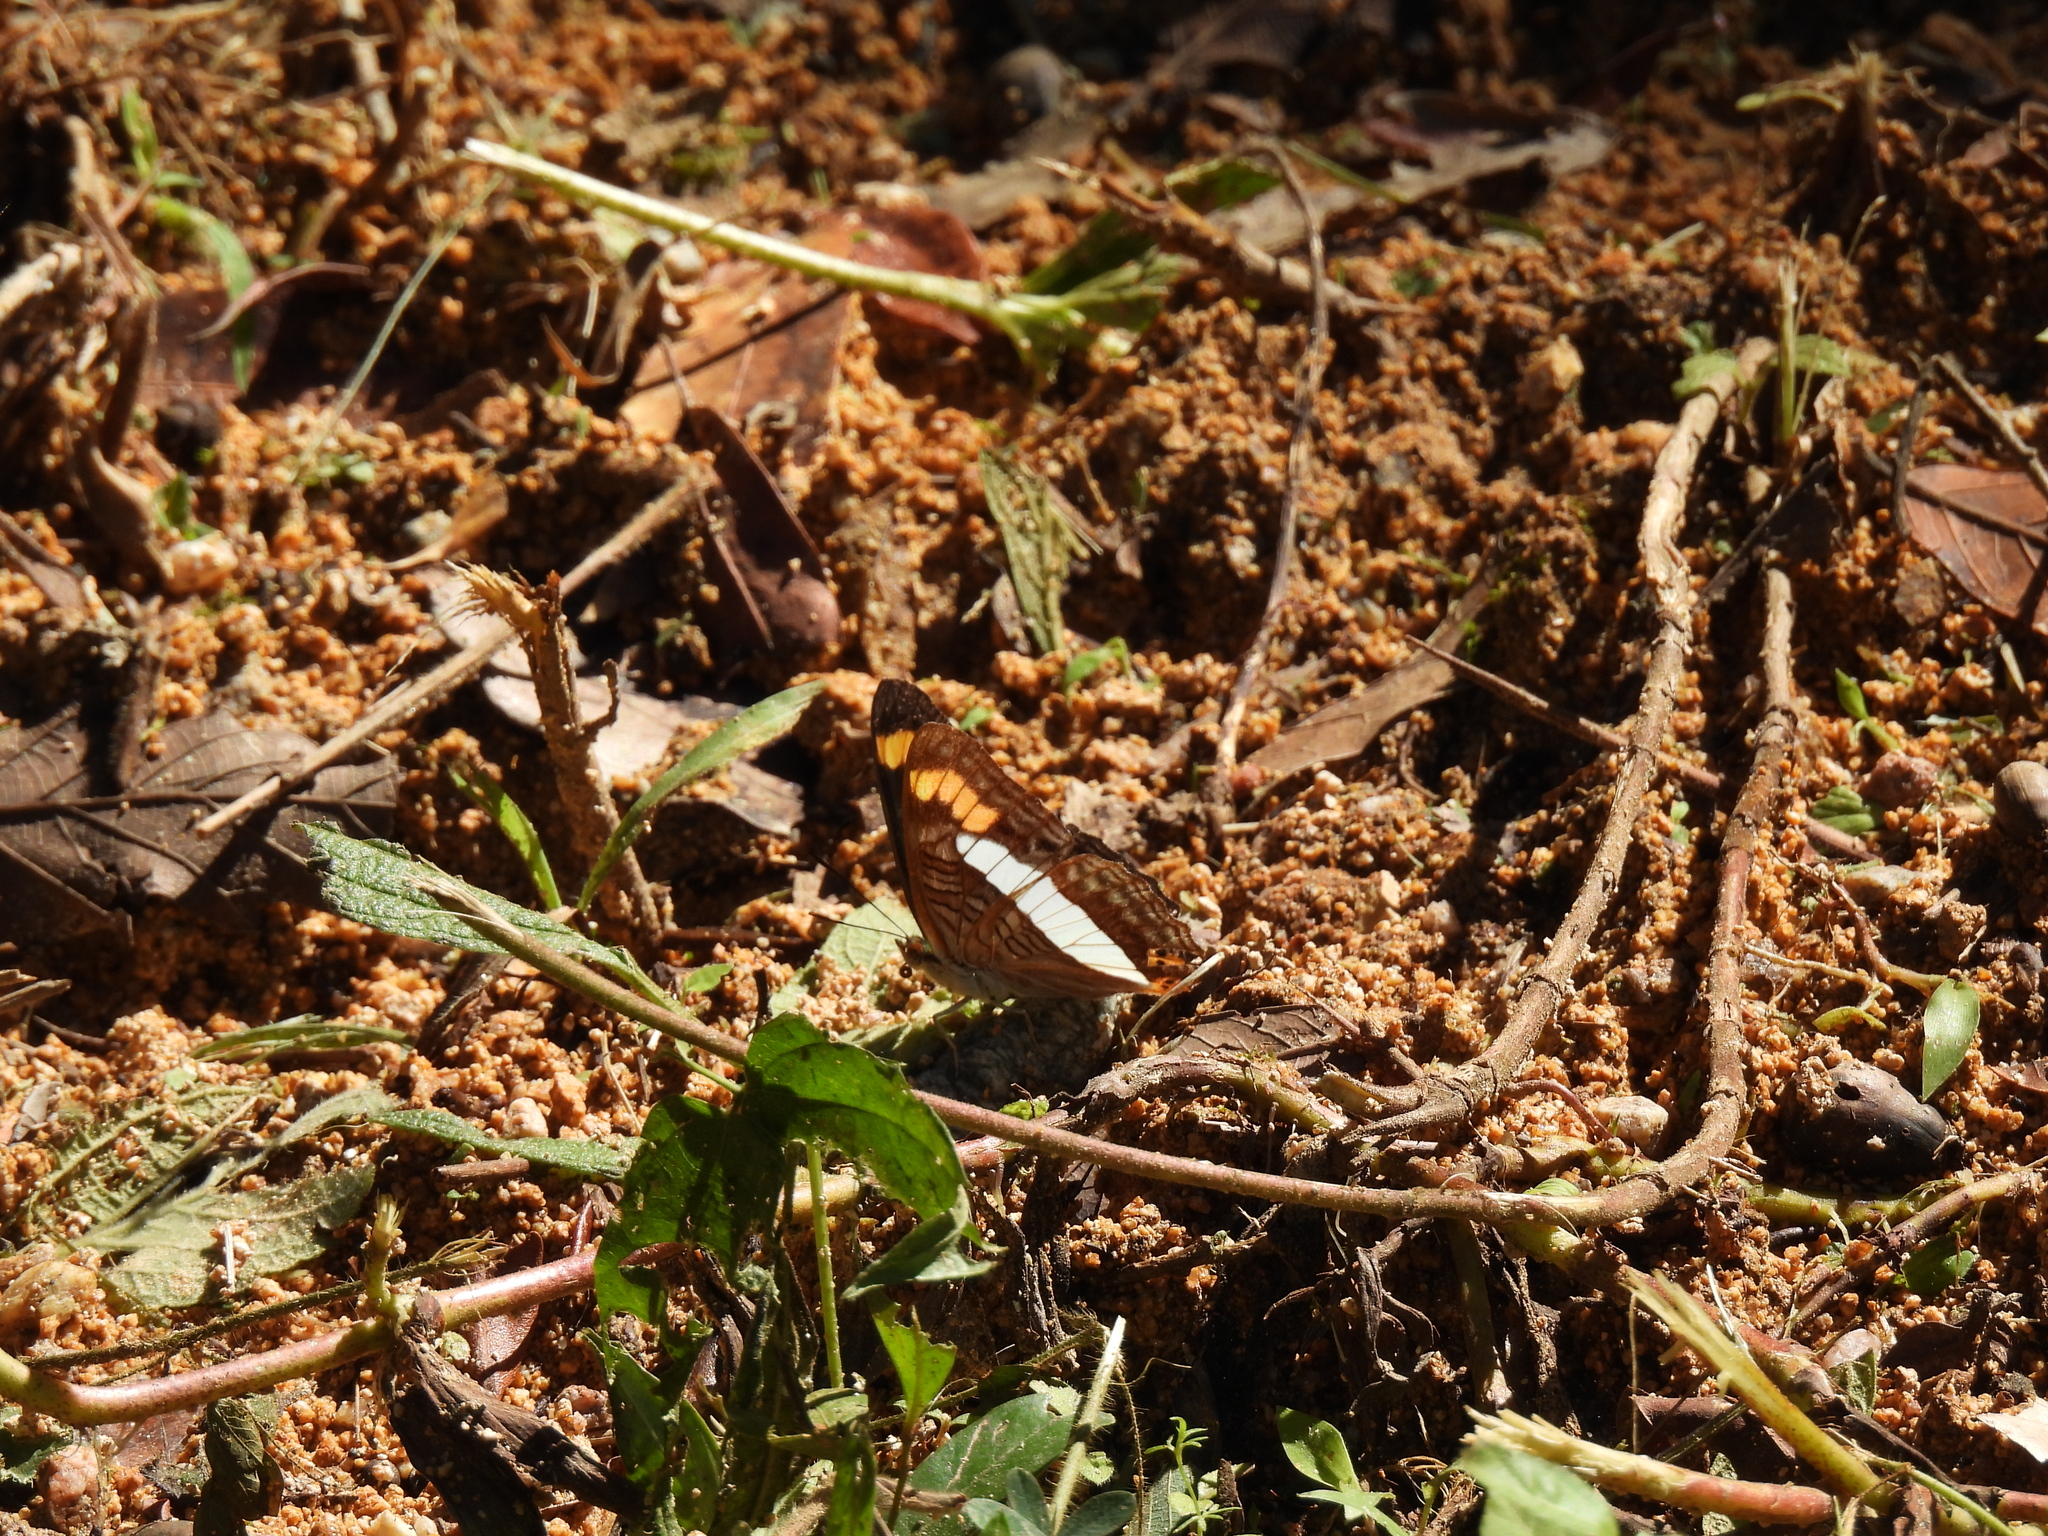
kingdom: Animalia
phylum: Arthropoda
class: Insecta
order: Lepidoptera
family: Nymphalidae
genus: Limenitis
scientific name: Limenitis pithys
